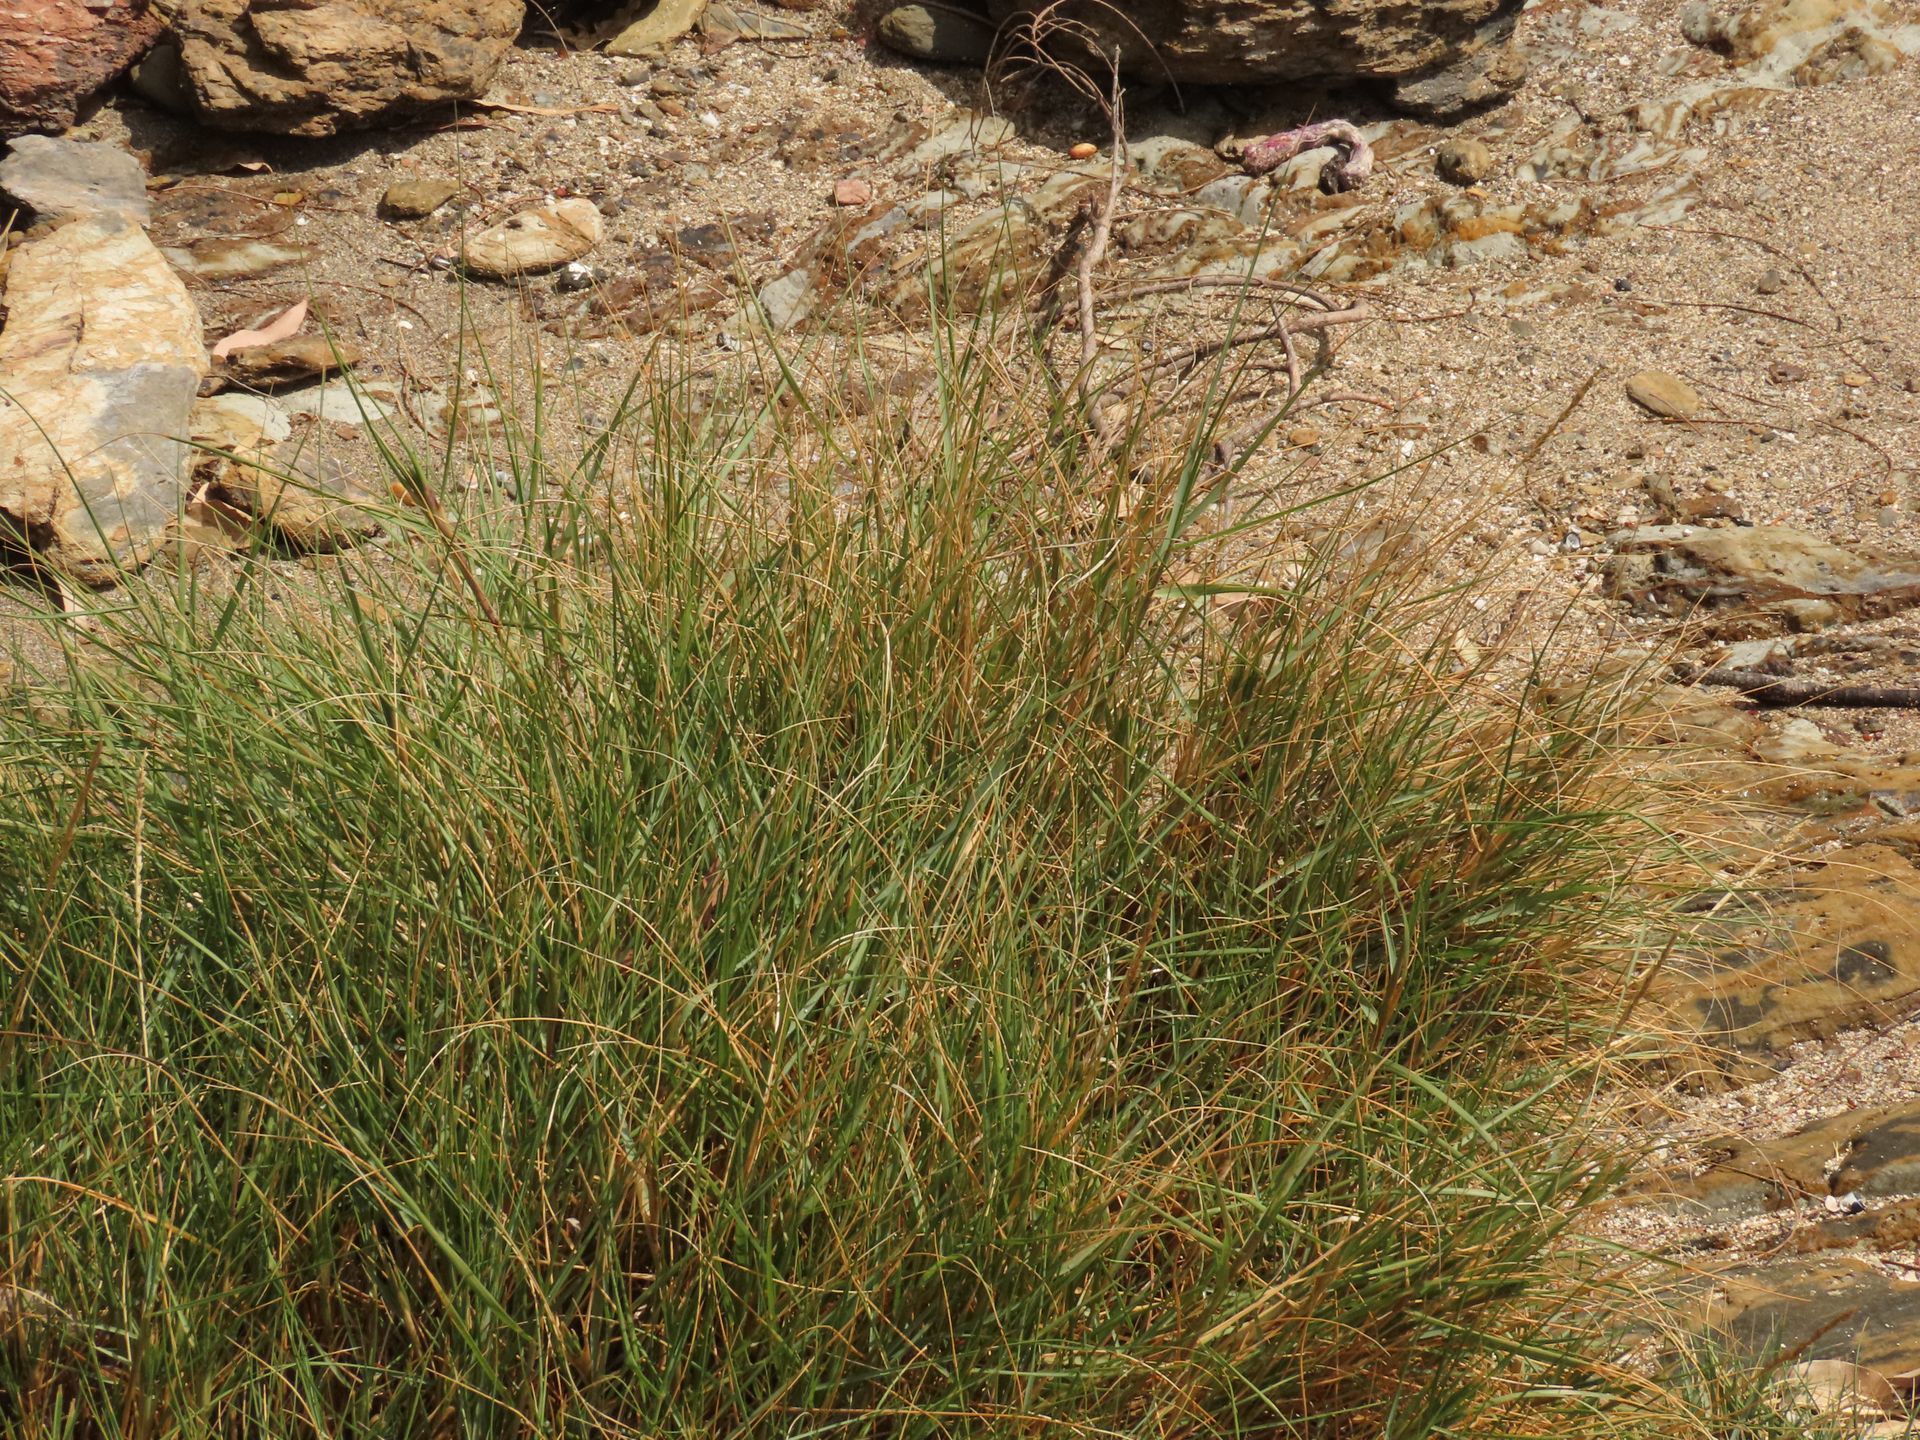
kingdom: Plantae
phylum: Tracheophyta
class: Liliopsida
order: Poales
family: Poaceae
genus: Sporobolus
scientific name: Sporobolus virginicus
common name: Beach dropseed
